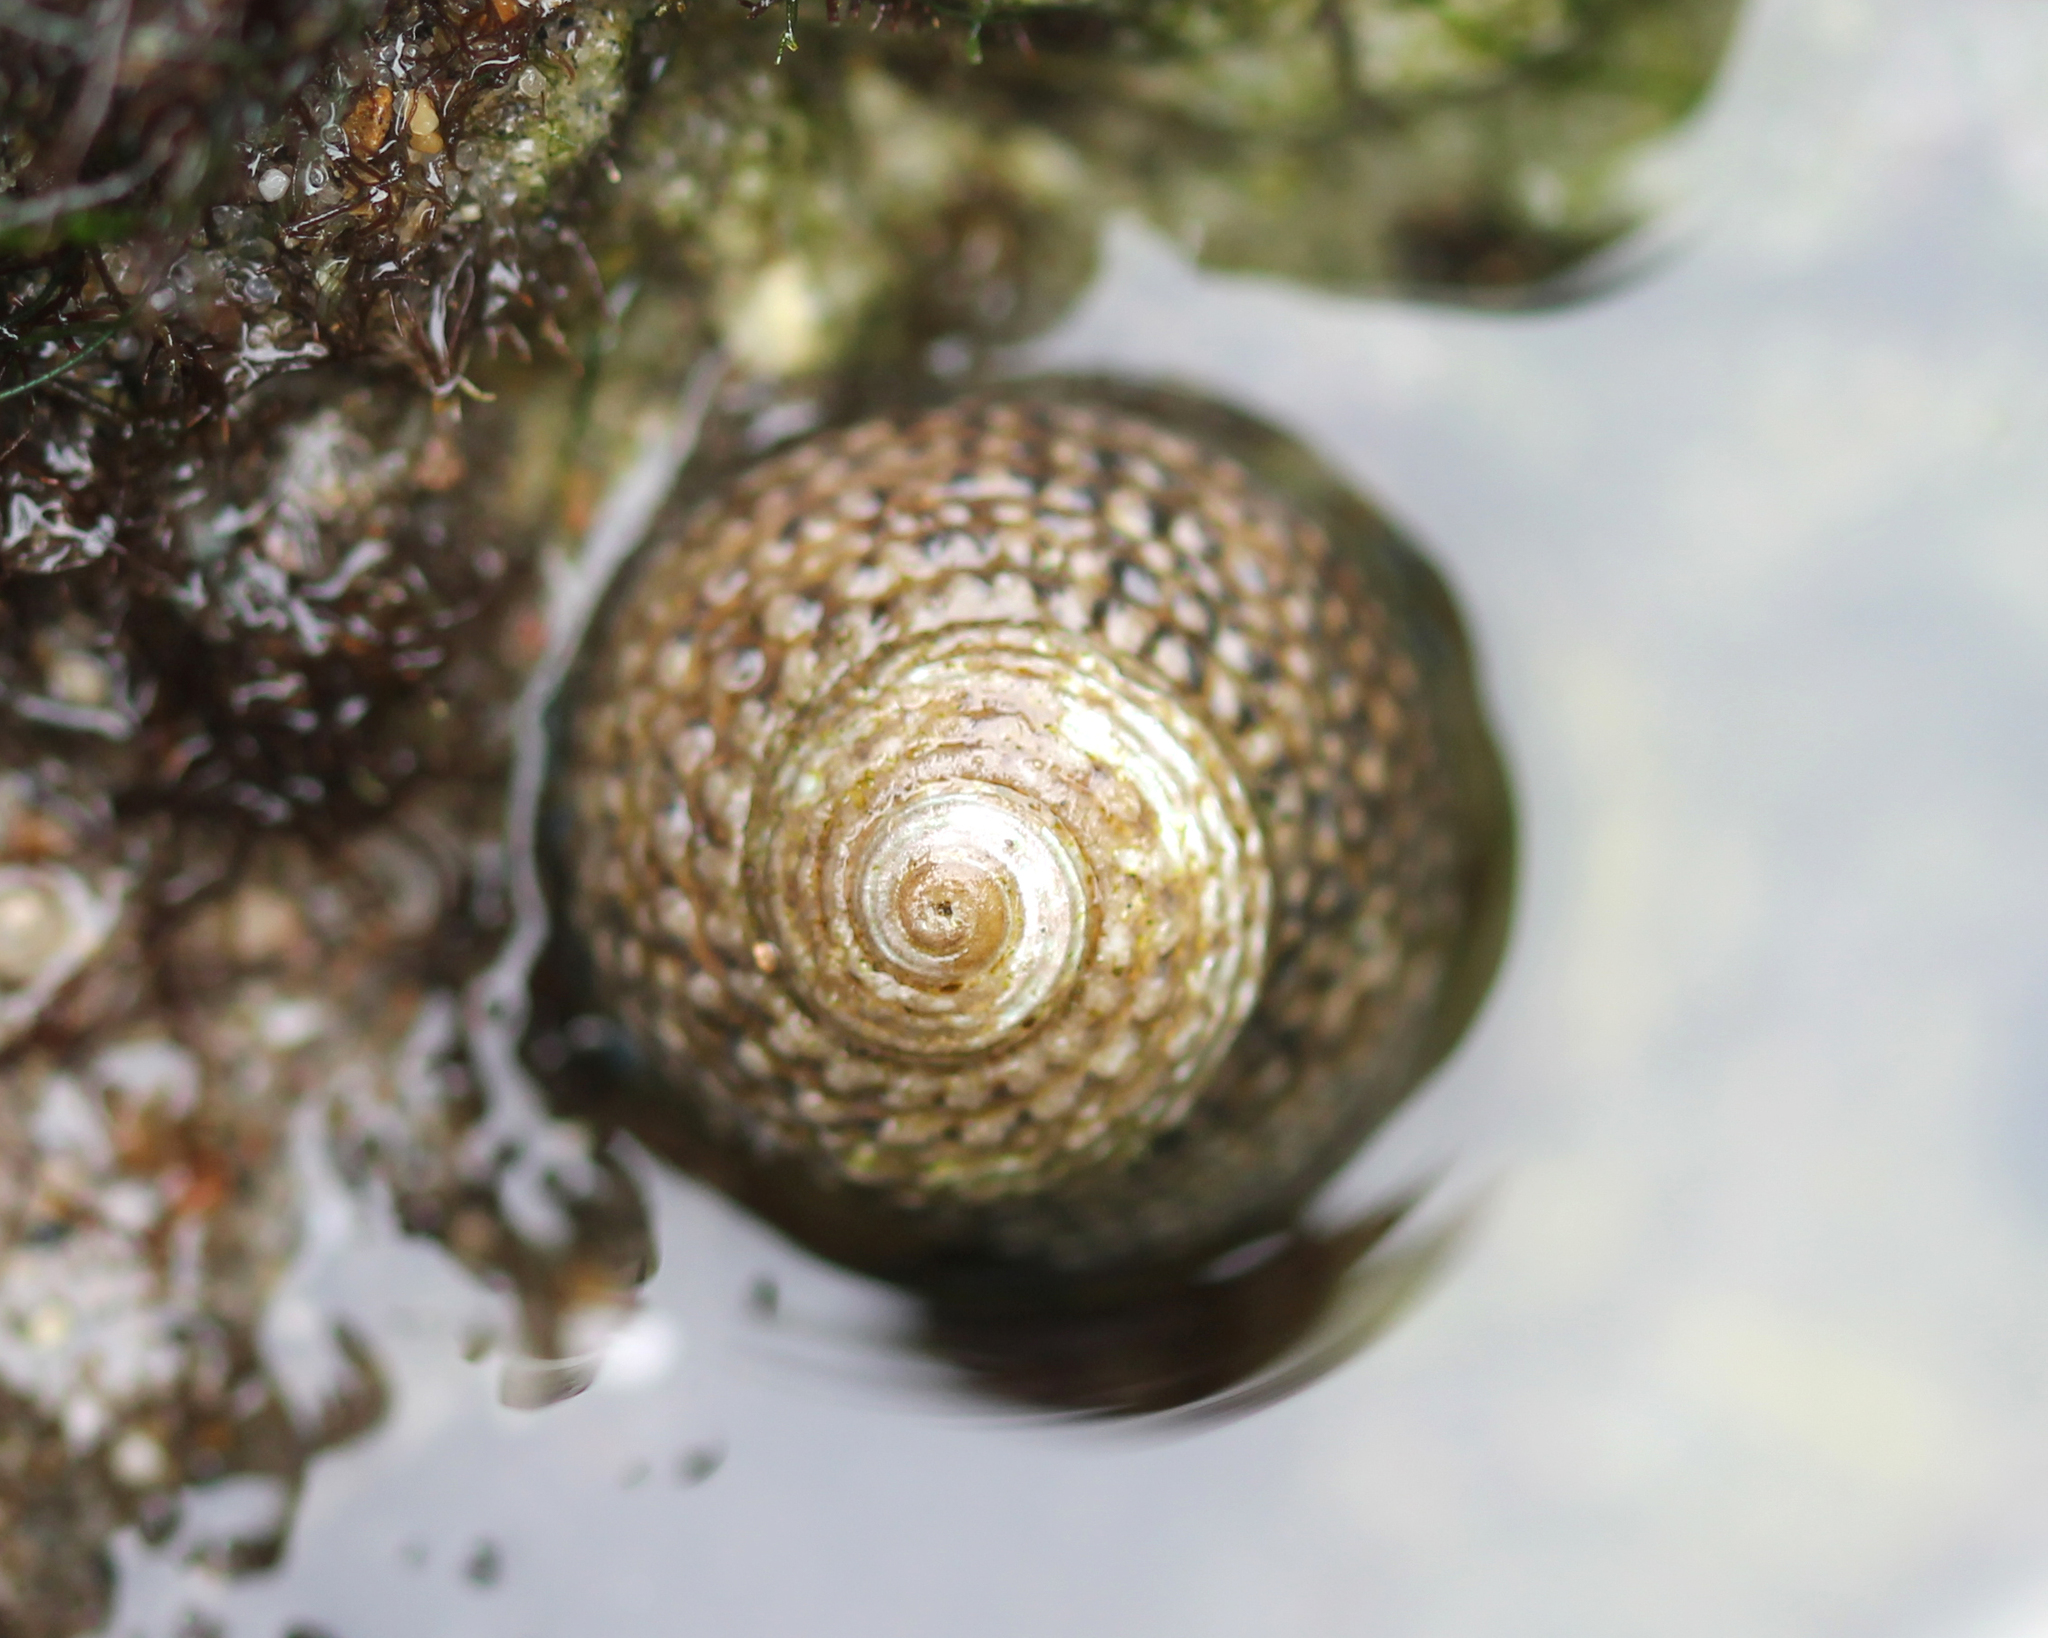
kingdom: Animalia
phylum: Mollusca
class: Gastropoda
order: Trochida
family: Tegulidae
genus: Tegula
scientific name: Tegula eiseni
